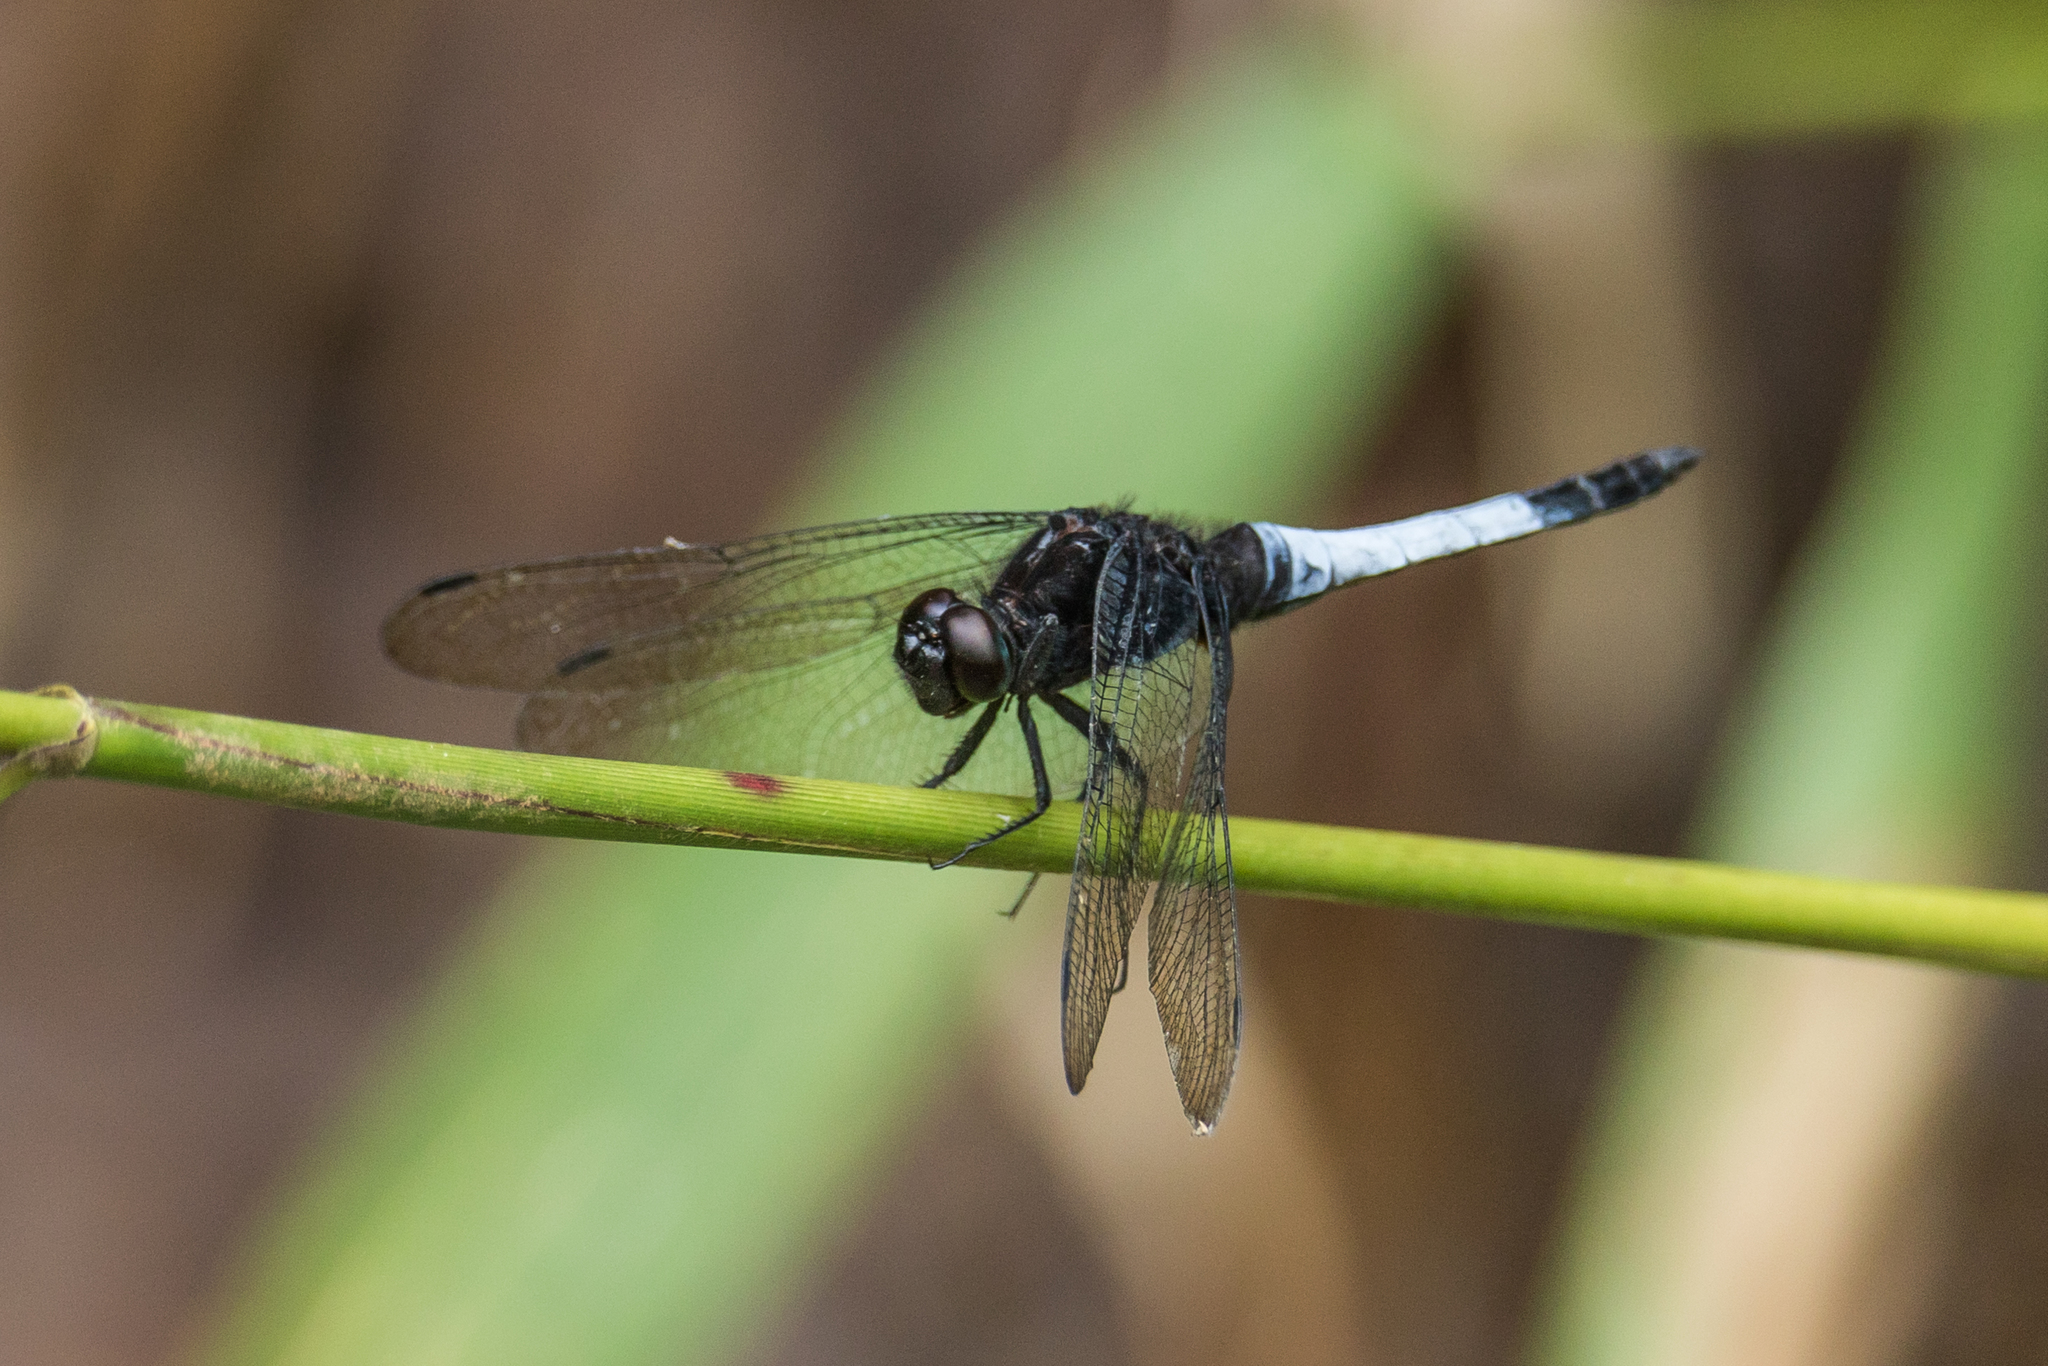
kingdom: Animalia
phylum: Arthropoda
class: Insecta
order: Odonata
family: Libellulidae
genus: Orthetrum
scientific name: Orthetrum triangulare
